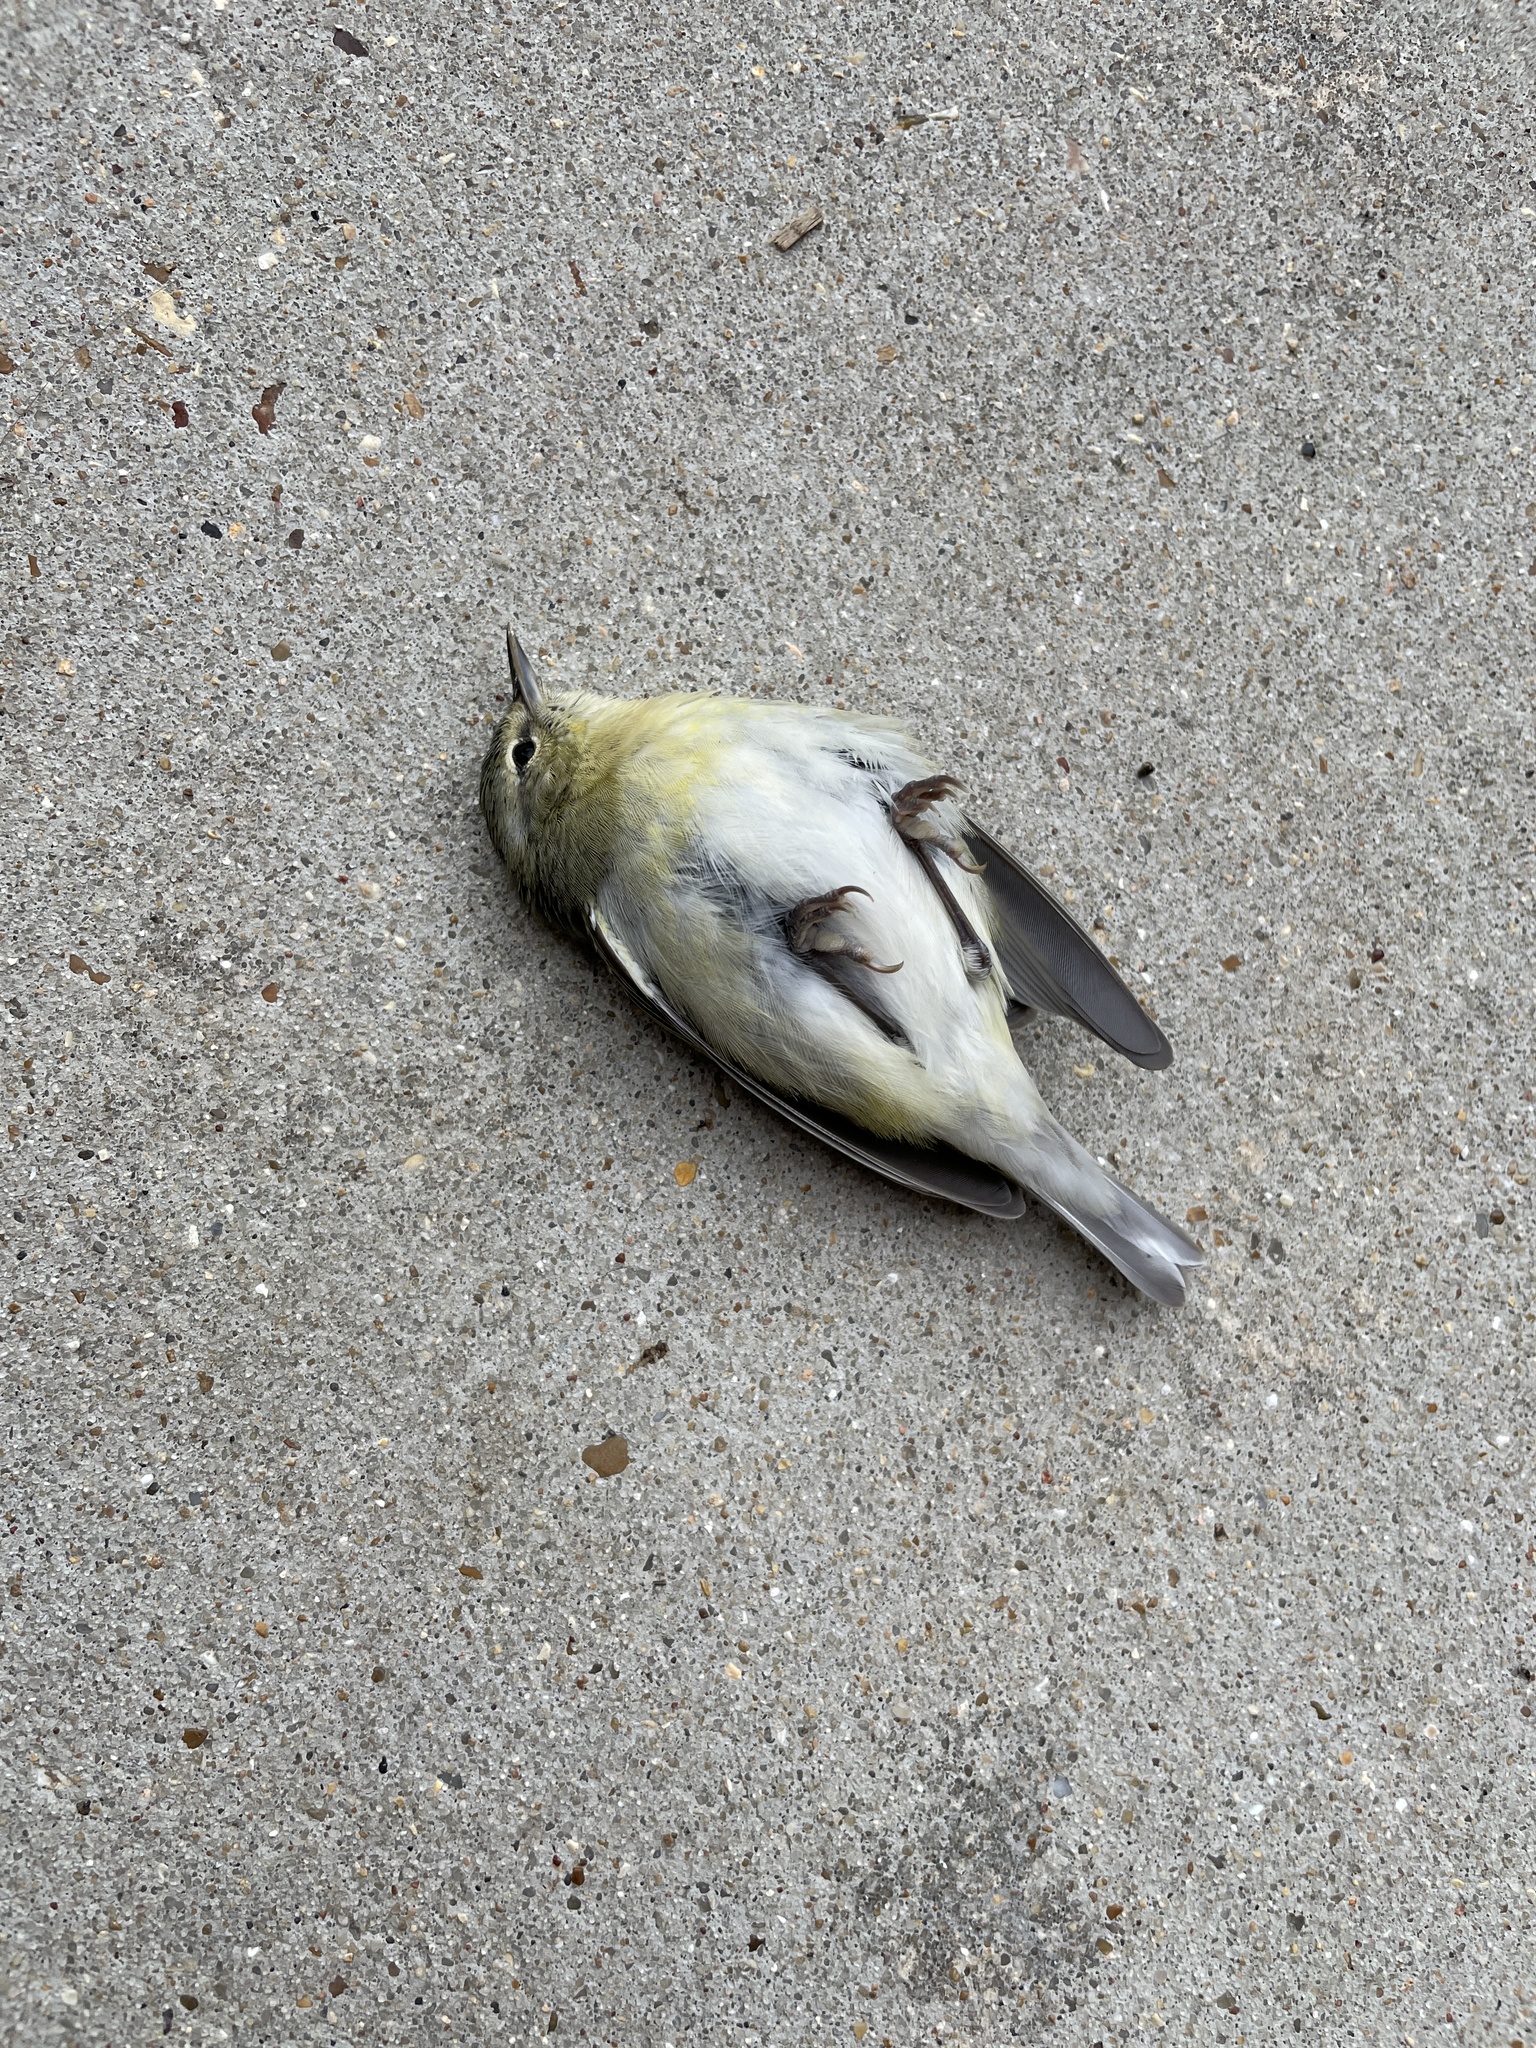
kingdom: Animalia
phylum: Chordata
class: Aves
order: Passeriformes
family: Parulidae
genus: Leiothlypis
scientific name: Leiothlypis peregrina
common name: Tennessee warbler
